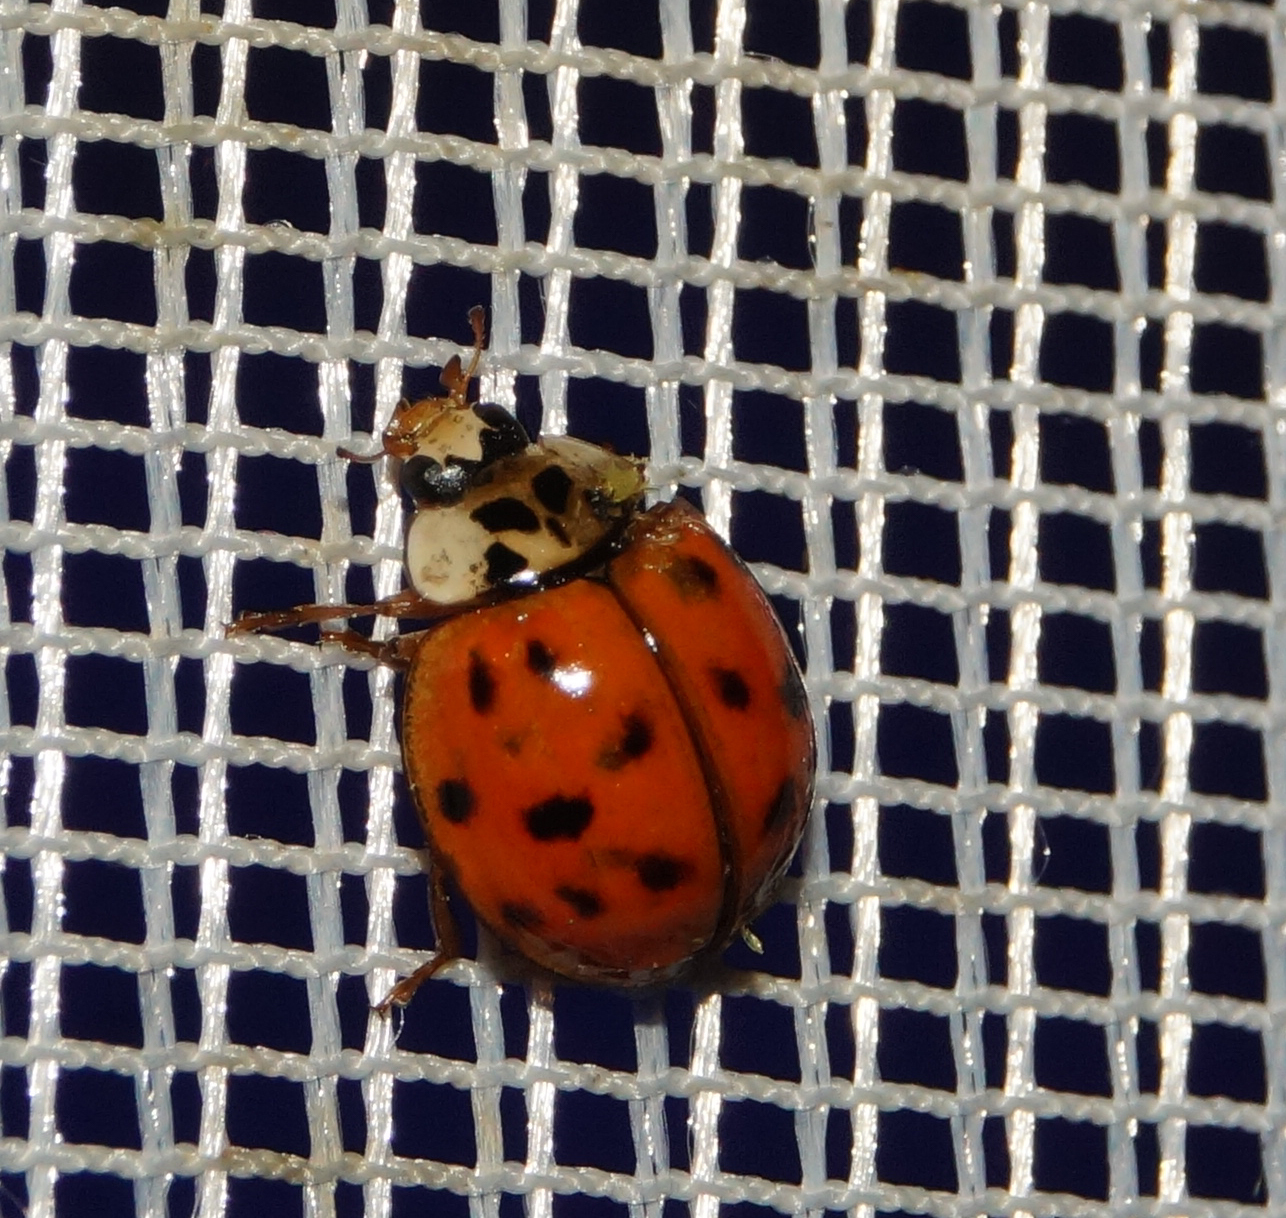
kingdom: Animalia
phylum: Arthropoda
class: Insecta
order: Coleoptera
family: Coccinellidae
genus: Harmonia
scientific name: Harmonia axyridis
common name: Harlequin ladybird
